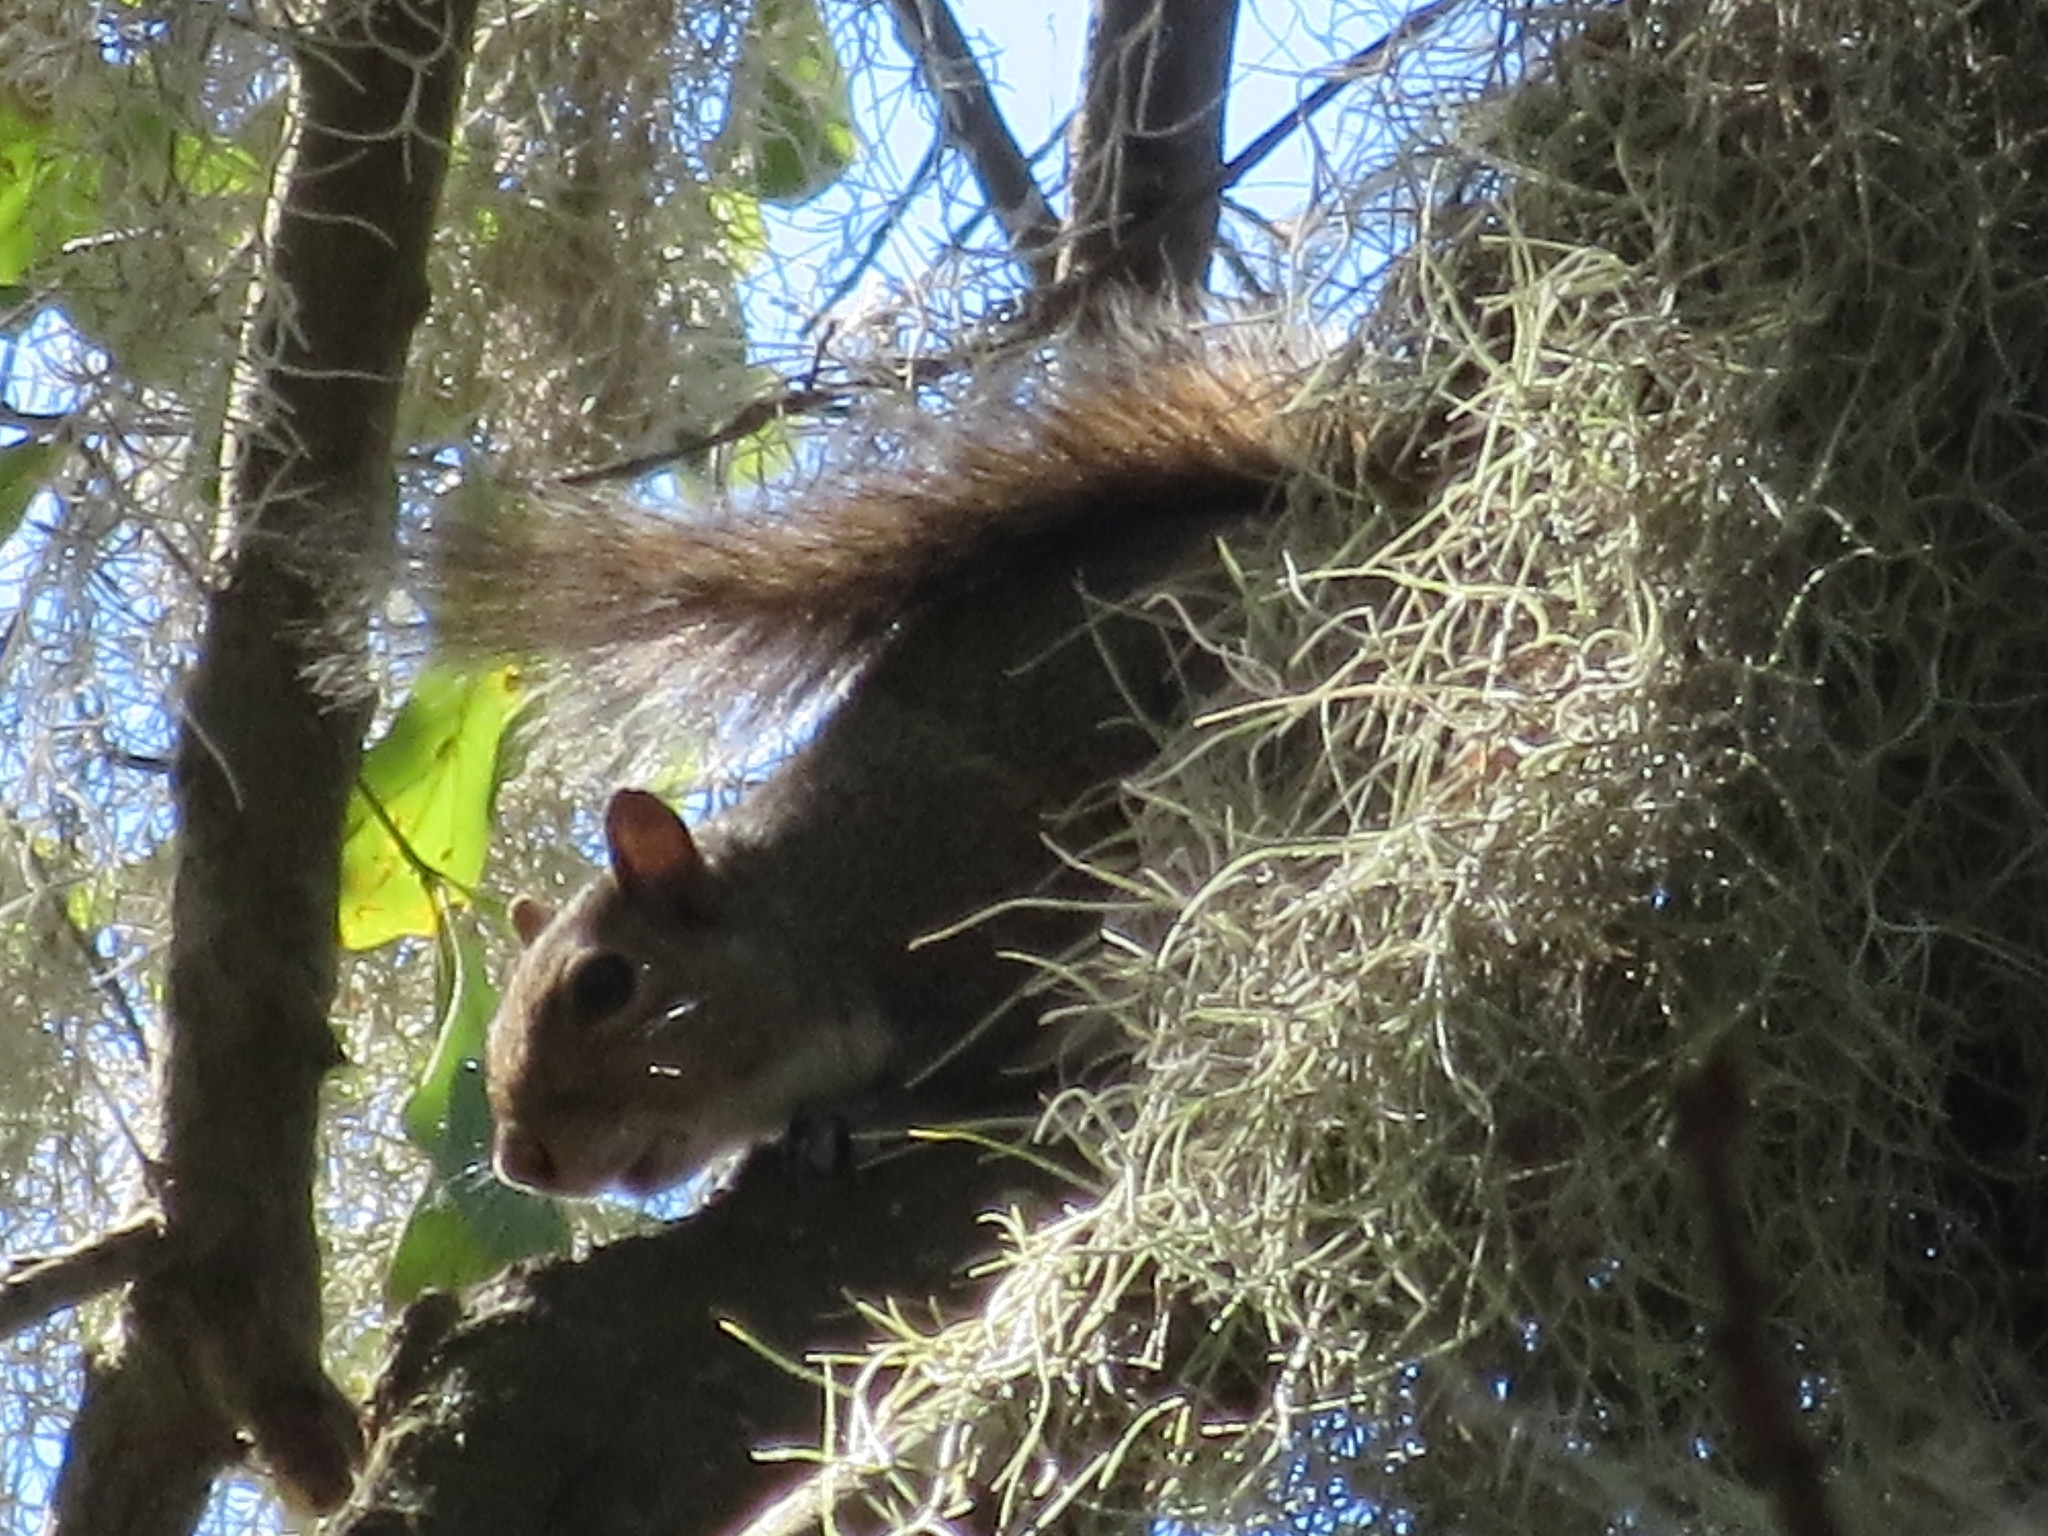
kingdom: Animalia
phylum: Chordata
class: Mammalia
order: Rodentia
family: Sciuridae
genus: Sciurus
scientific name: Sciurus carolinensis
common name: Eastern gray squirrel
